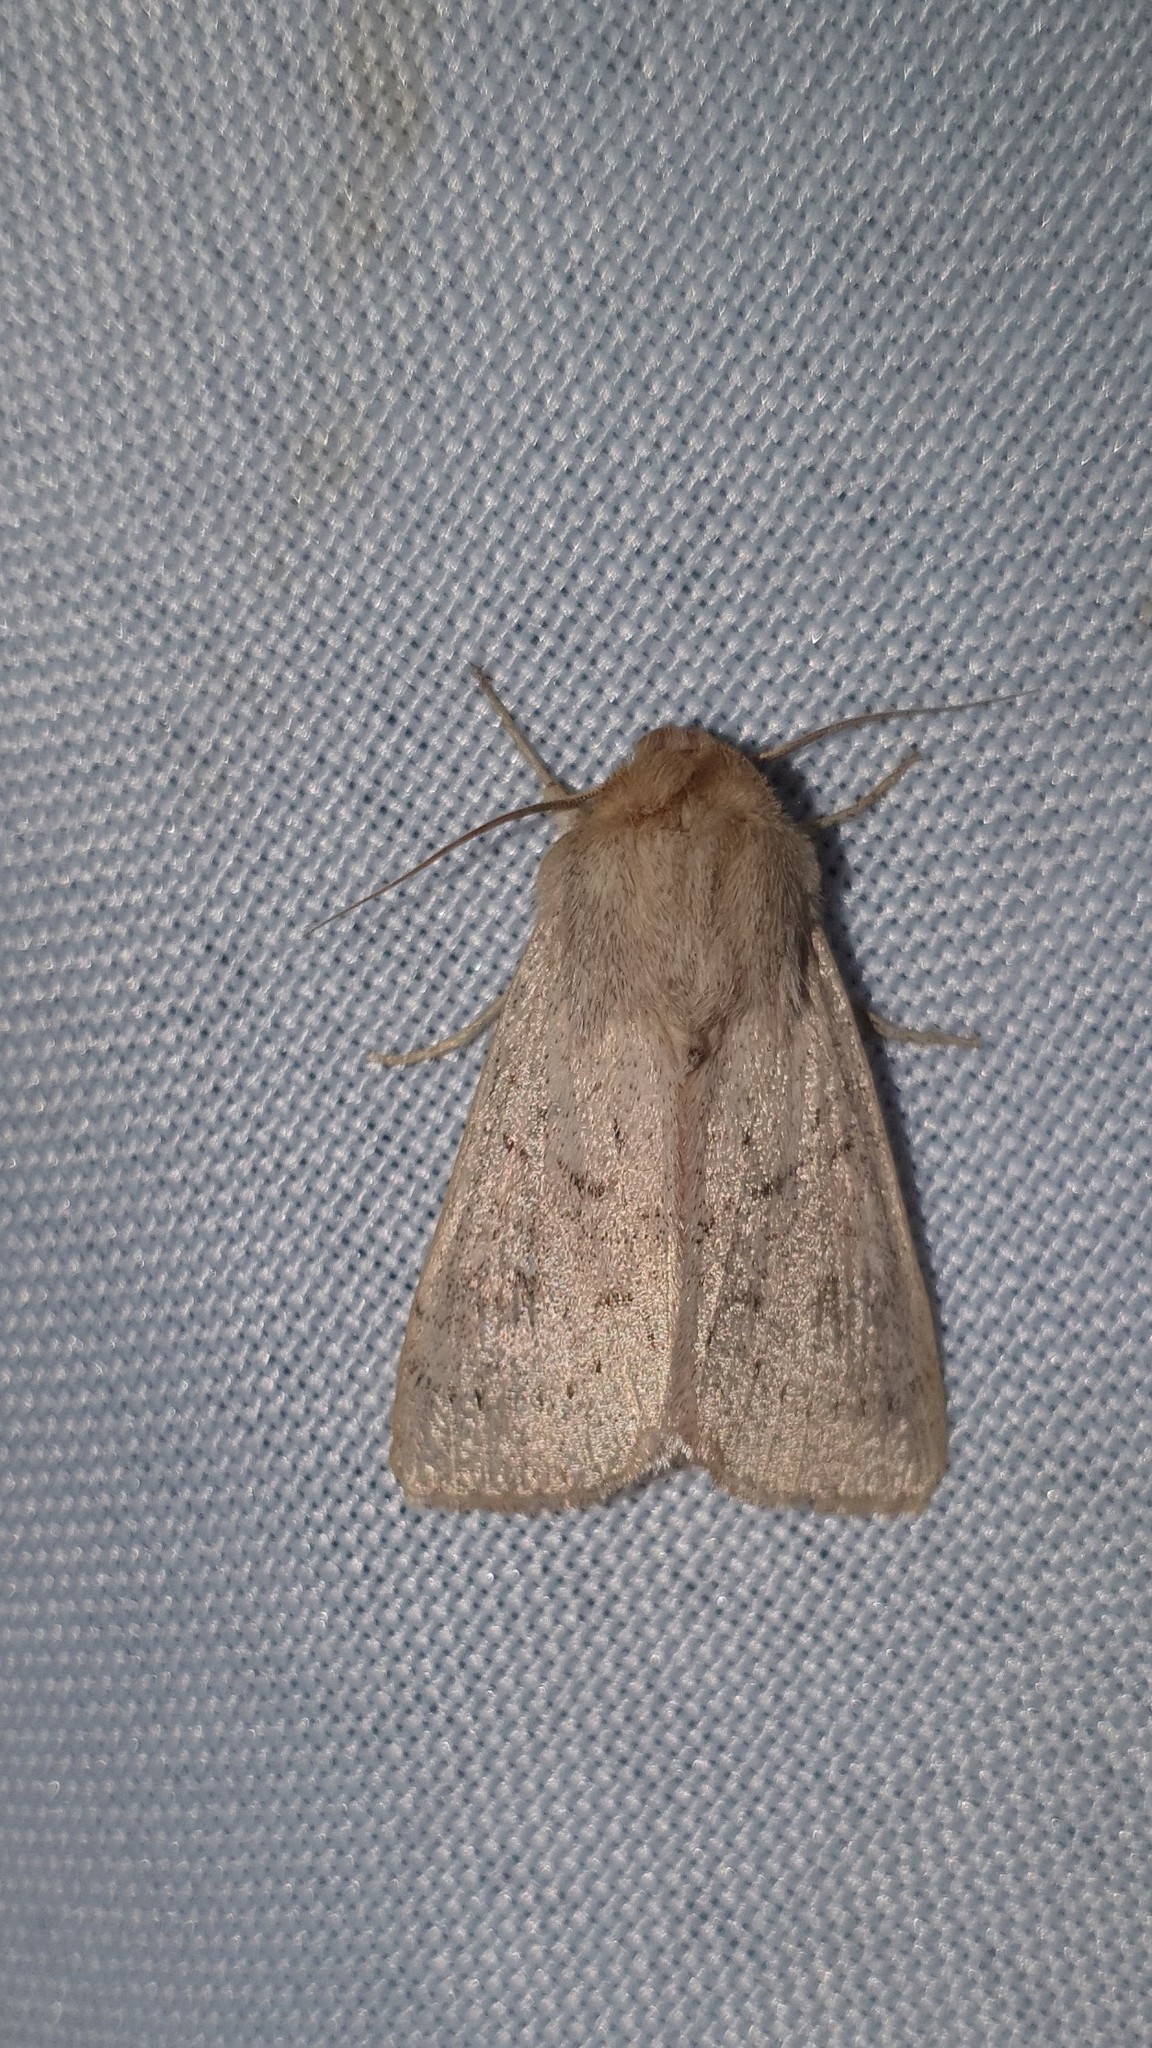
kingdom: Animalia
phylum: Arthropoda
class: Insecta
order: Lepidoptera
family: Noctuidae
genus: Mythimna
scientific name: Mythimna ferrago
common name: Clay
